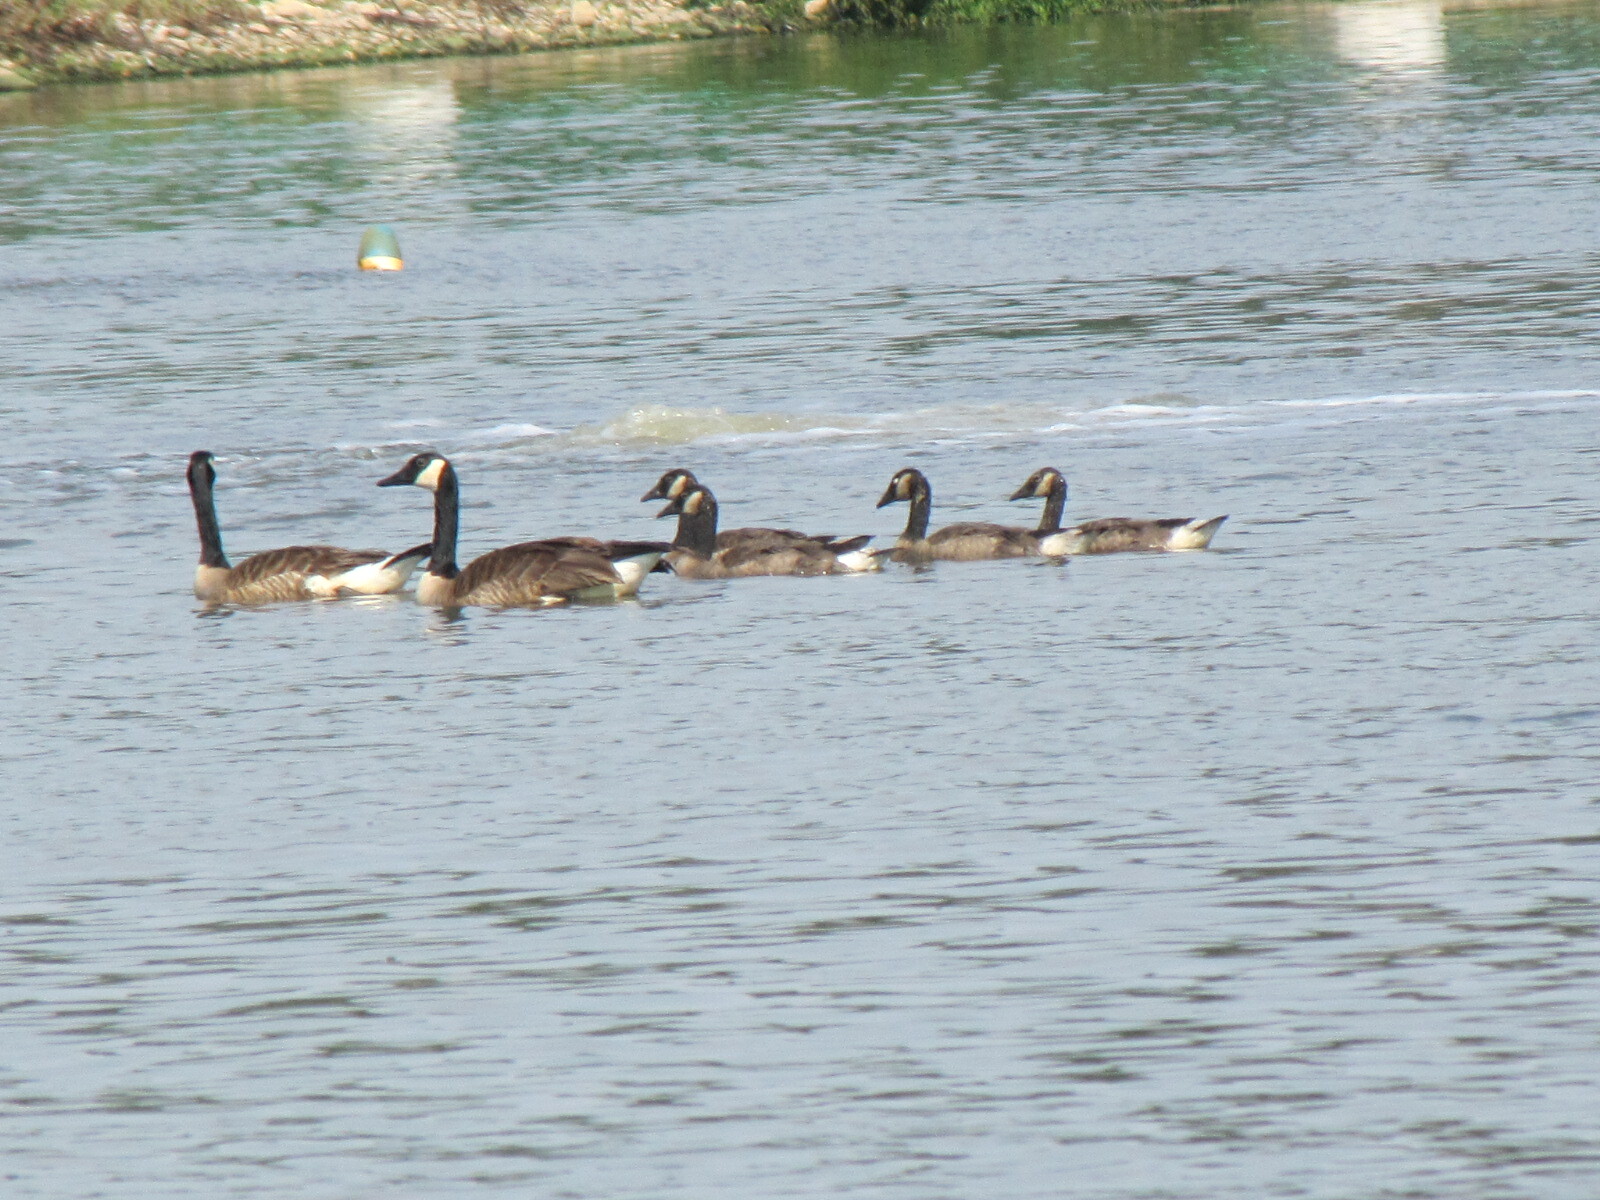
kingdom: Animalia
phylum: Chordata
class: Aves
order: Anseriformes
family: Anatidae
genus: Branta
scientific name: Branta canadensis
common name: Canada goose
